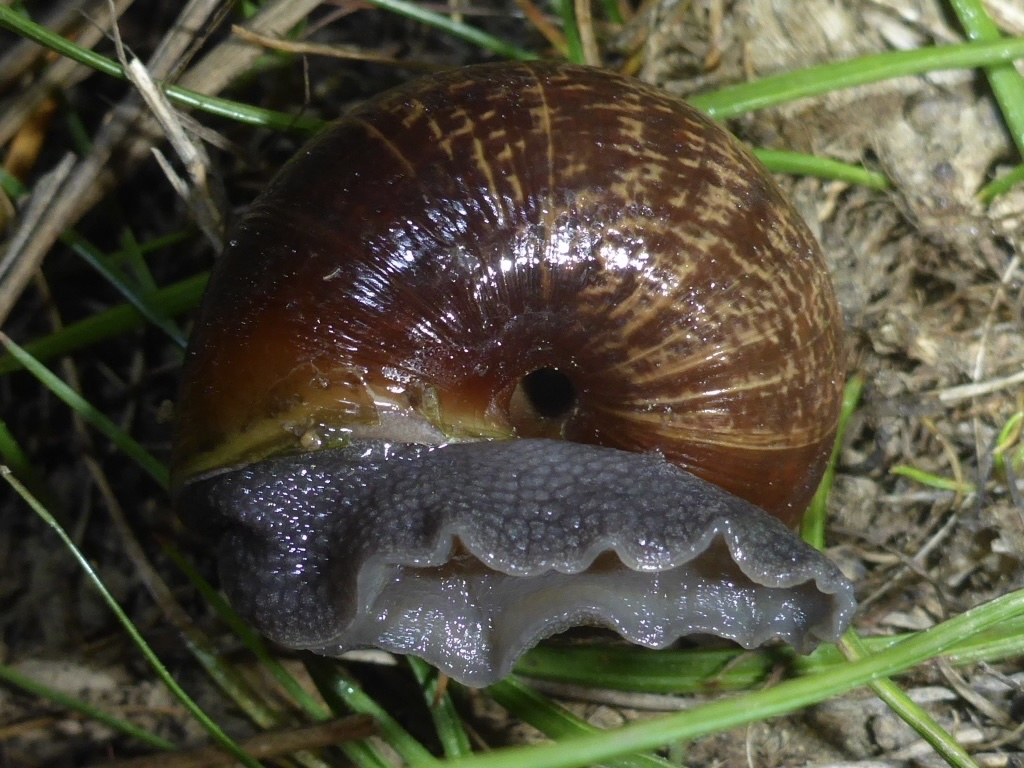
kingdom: Animalia
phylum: Mollusca
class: Gastropoda
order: Stylommatophora
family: Xanthonychidae
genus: Helminthoglypta
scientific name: Helminthoglypta arrosa
